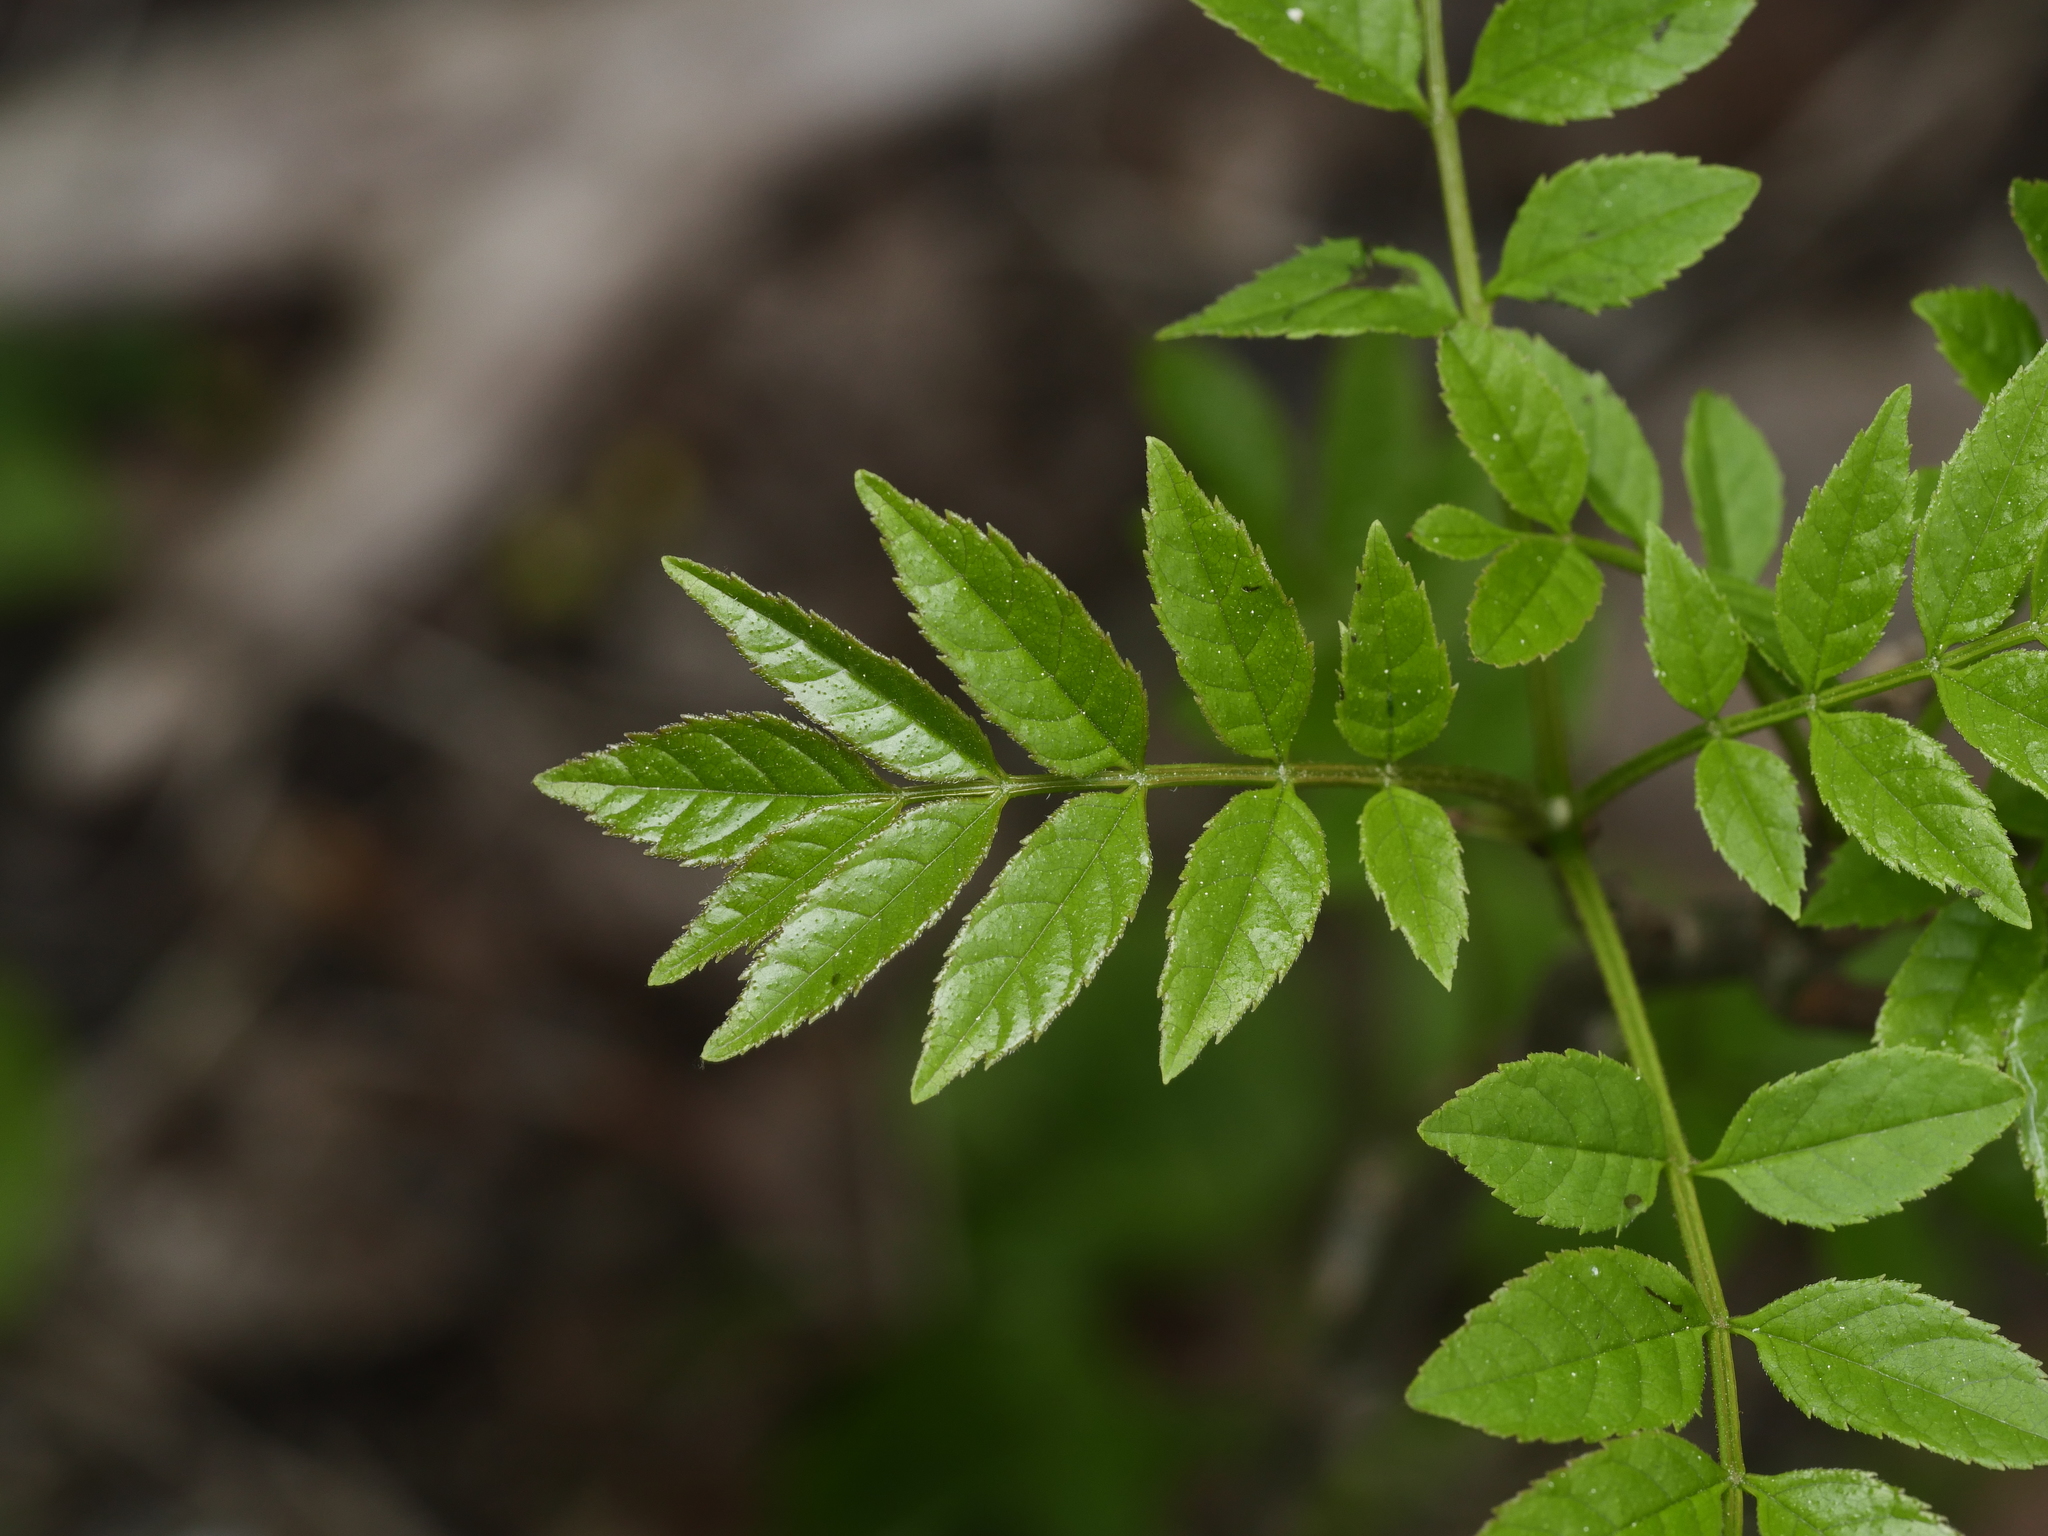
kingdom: Plantae
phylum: Tracheophyta
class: Magnoliopsida
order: Lamiales
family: Oleaceae
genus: Fraxinus
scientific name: Fraxinus excelsior
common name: European ash
